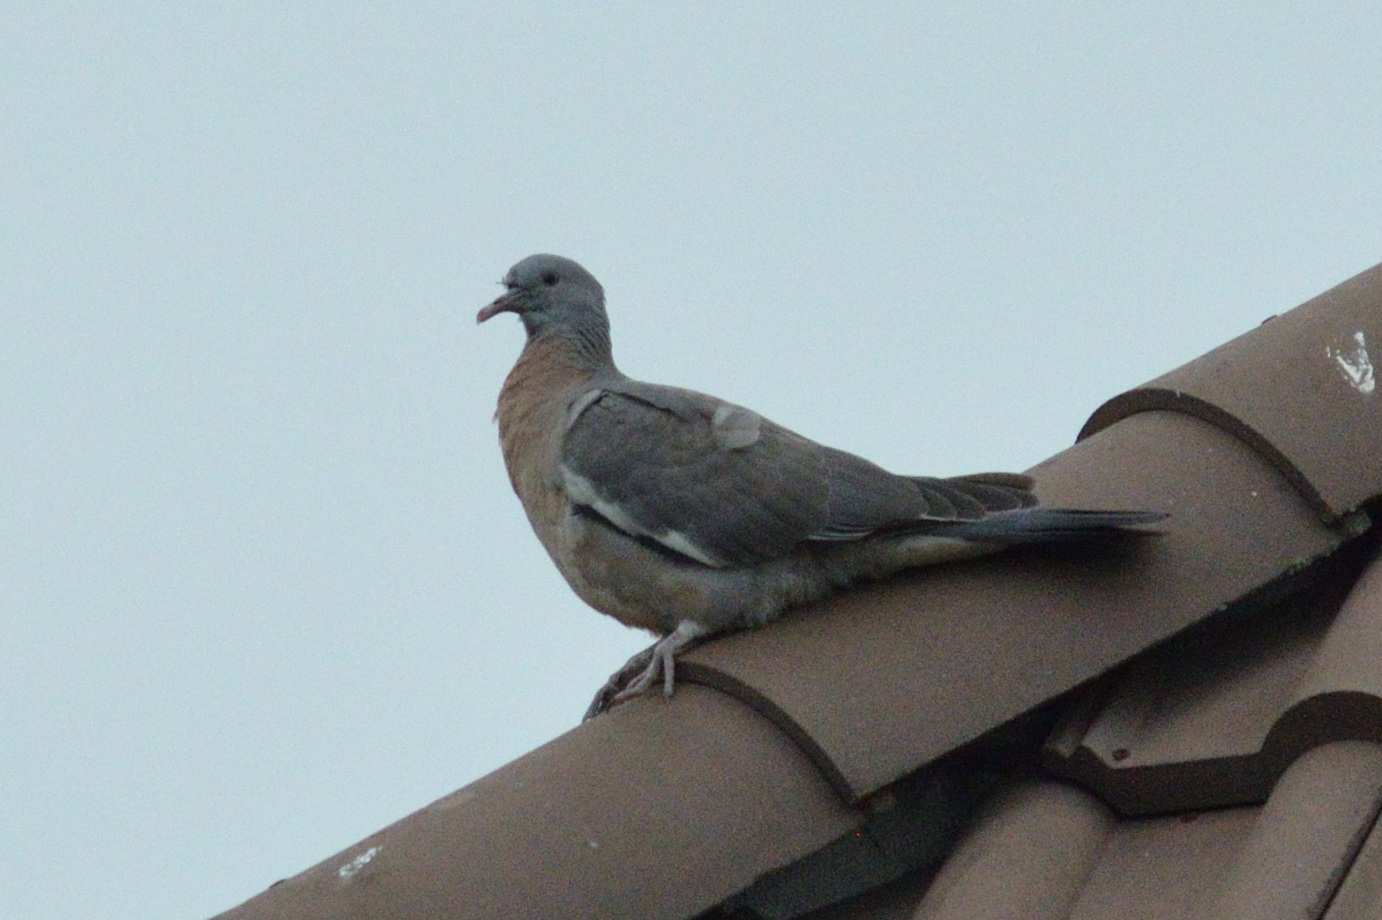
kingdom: Animalia
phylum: Chordata
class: Aves
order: Columbiformes
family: Columbidae
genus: Columba
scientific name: Columba palumbus
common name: Common wood pigeon
